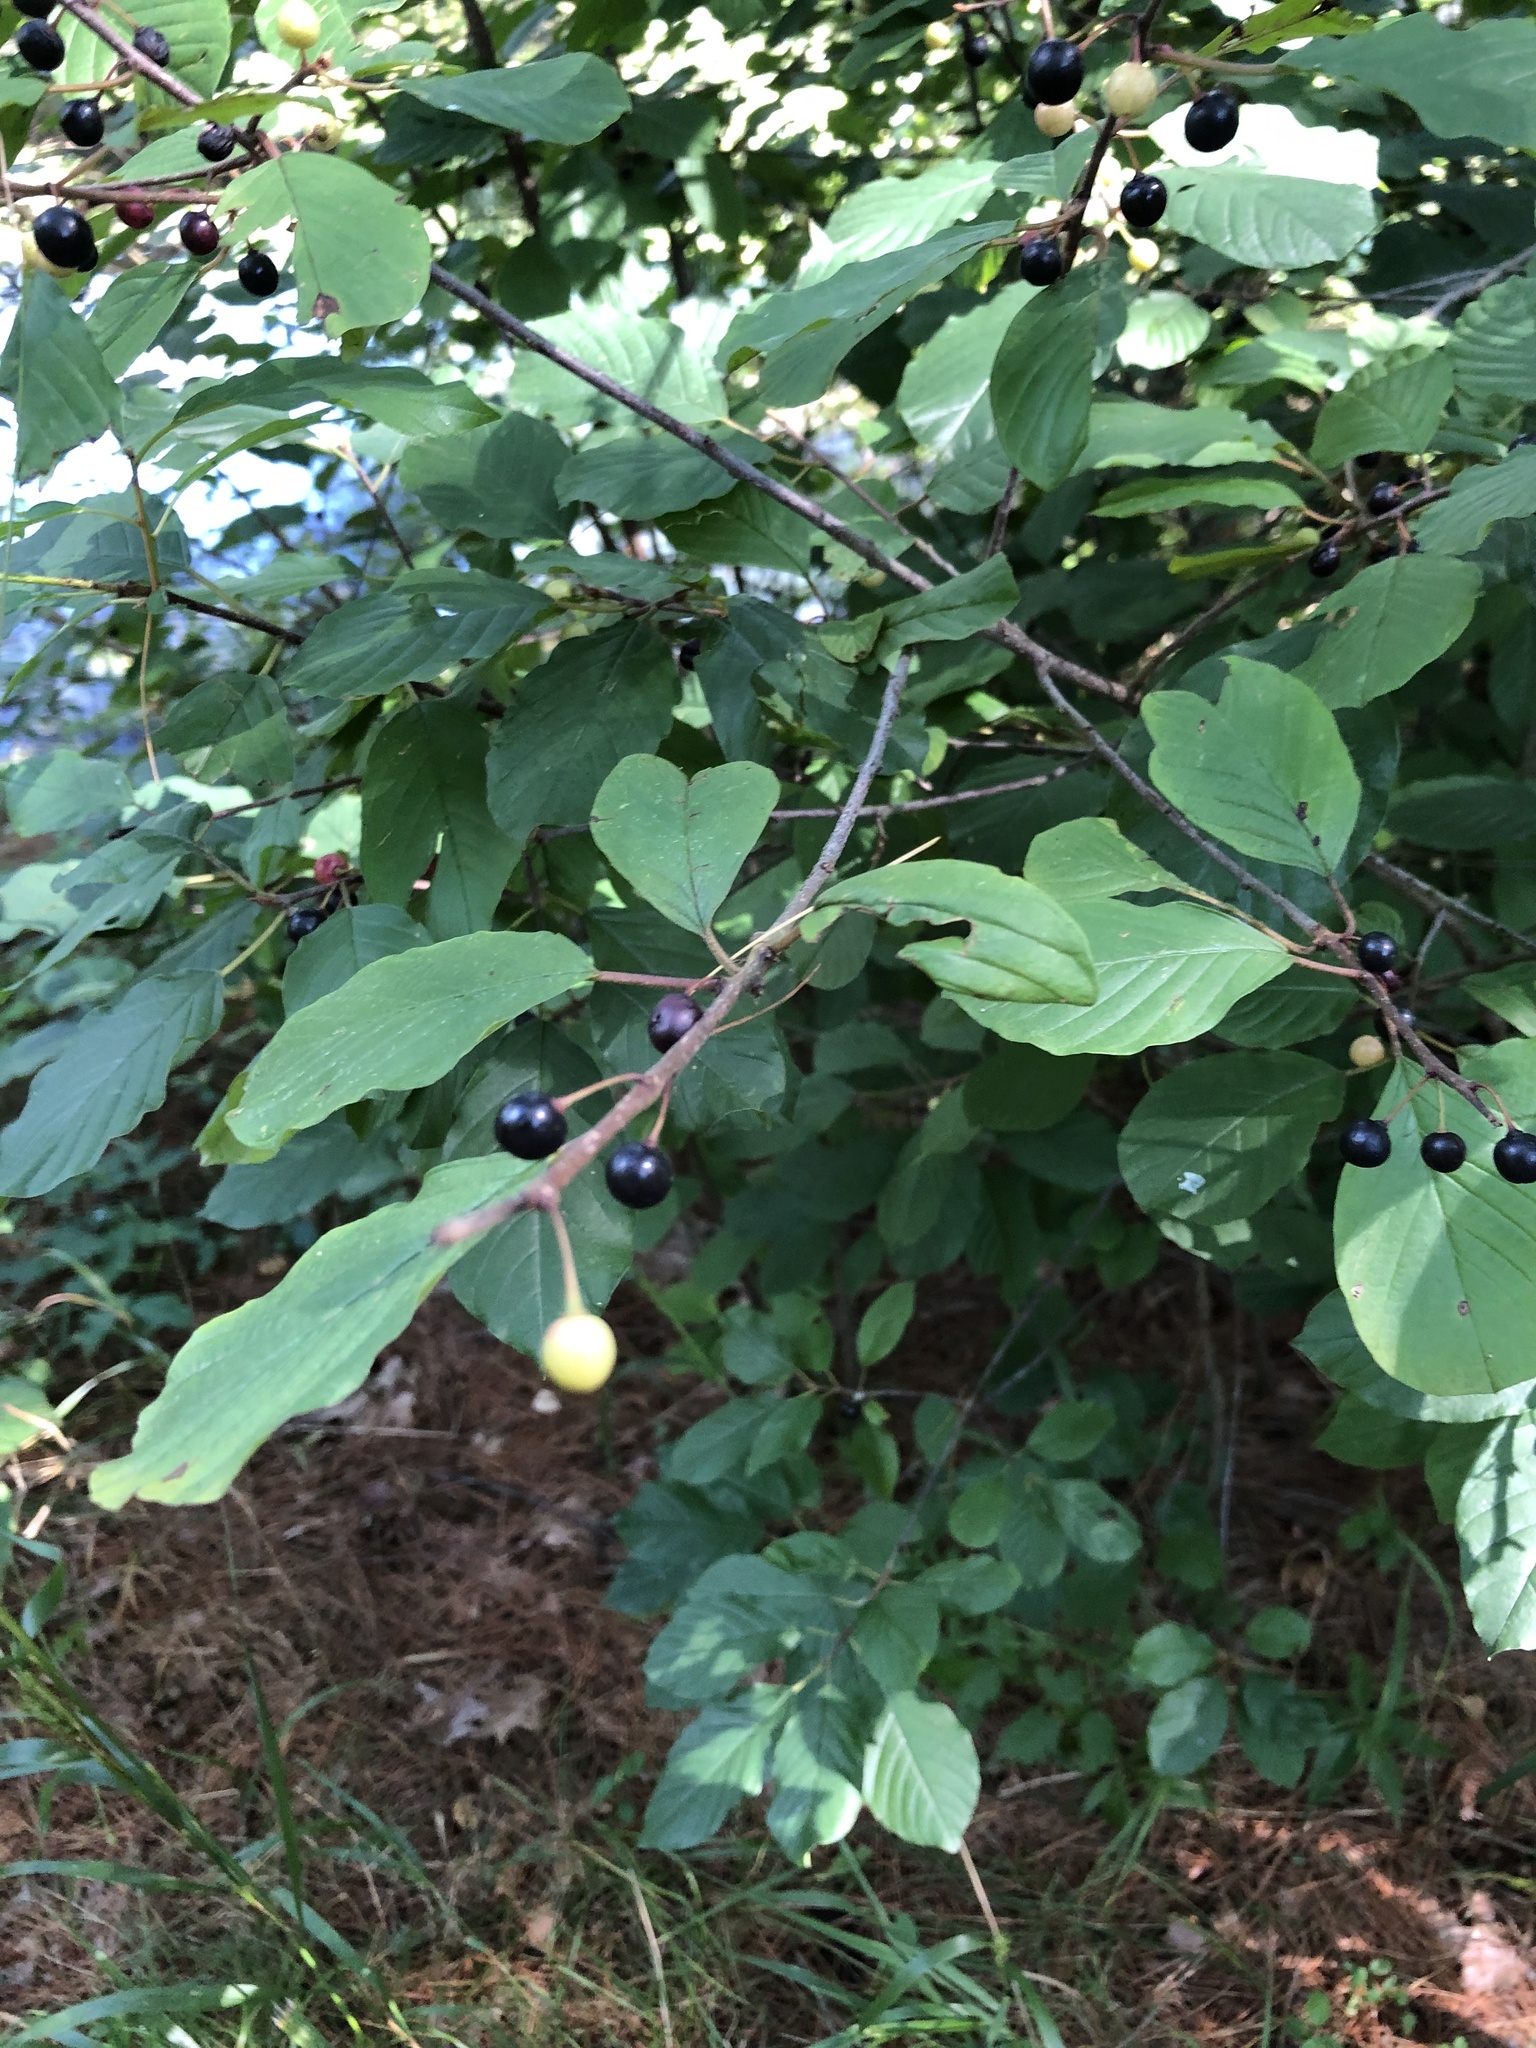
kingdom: Plantae
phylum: Tracheophyta
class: Magnoliopsida
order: Rosales
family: Rhamnaceae
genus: Frangula
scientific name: Frangula alnus
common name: Alder buckthorn
